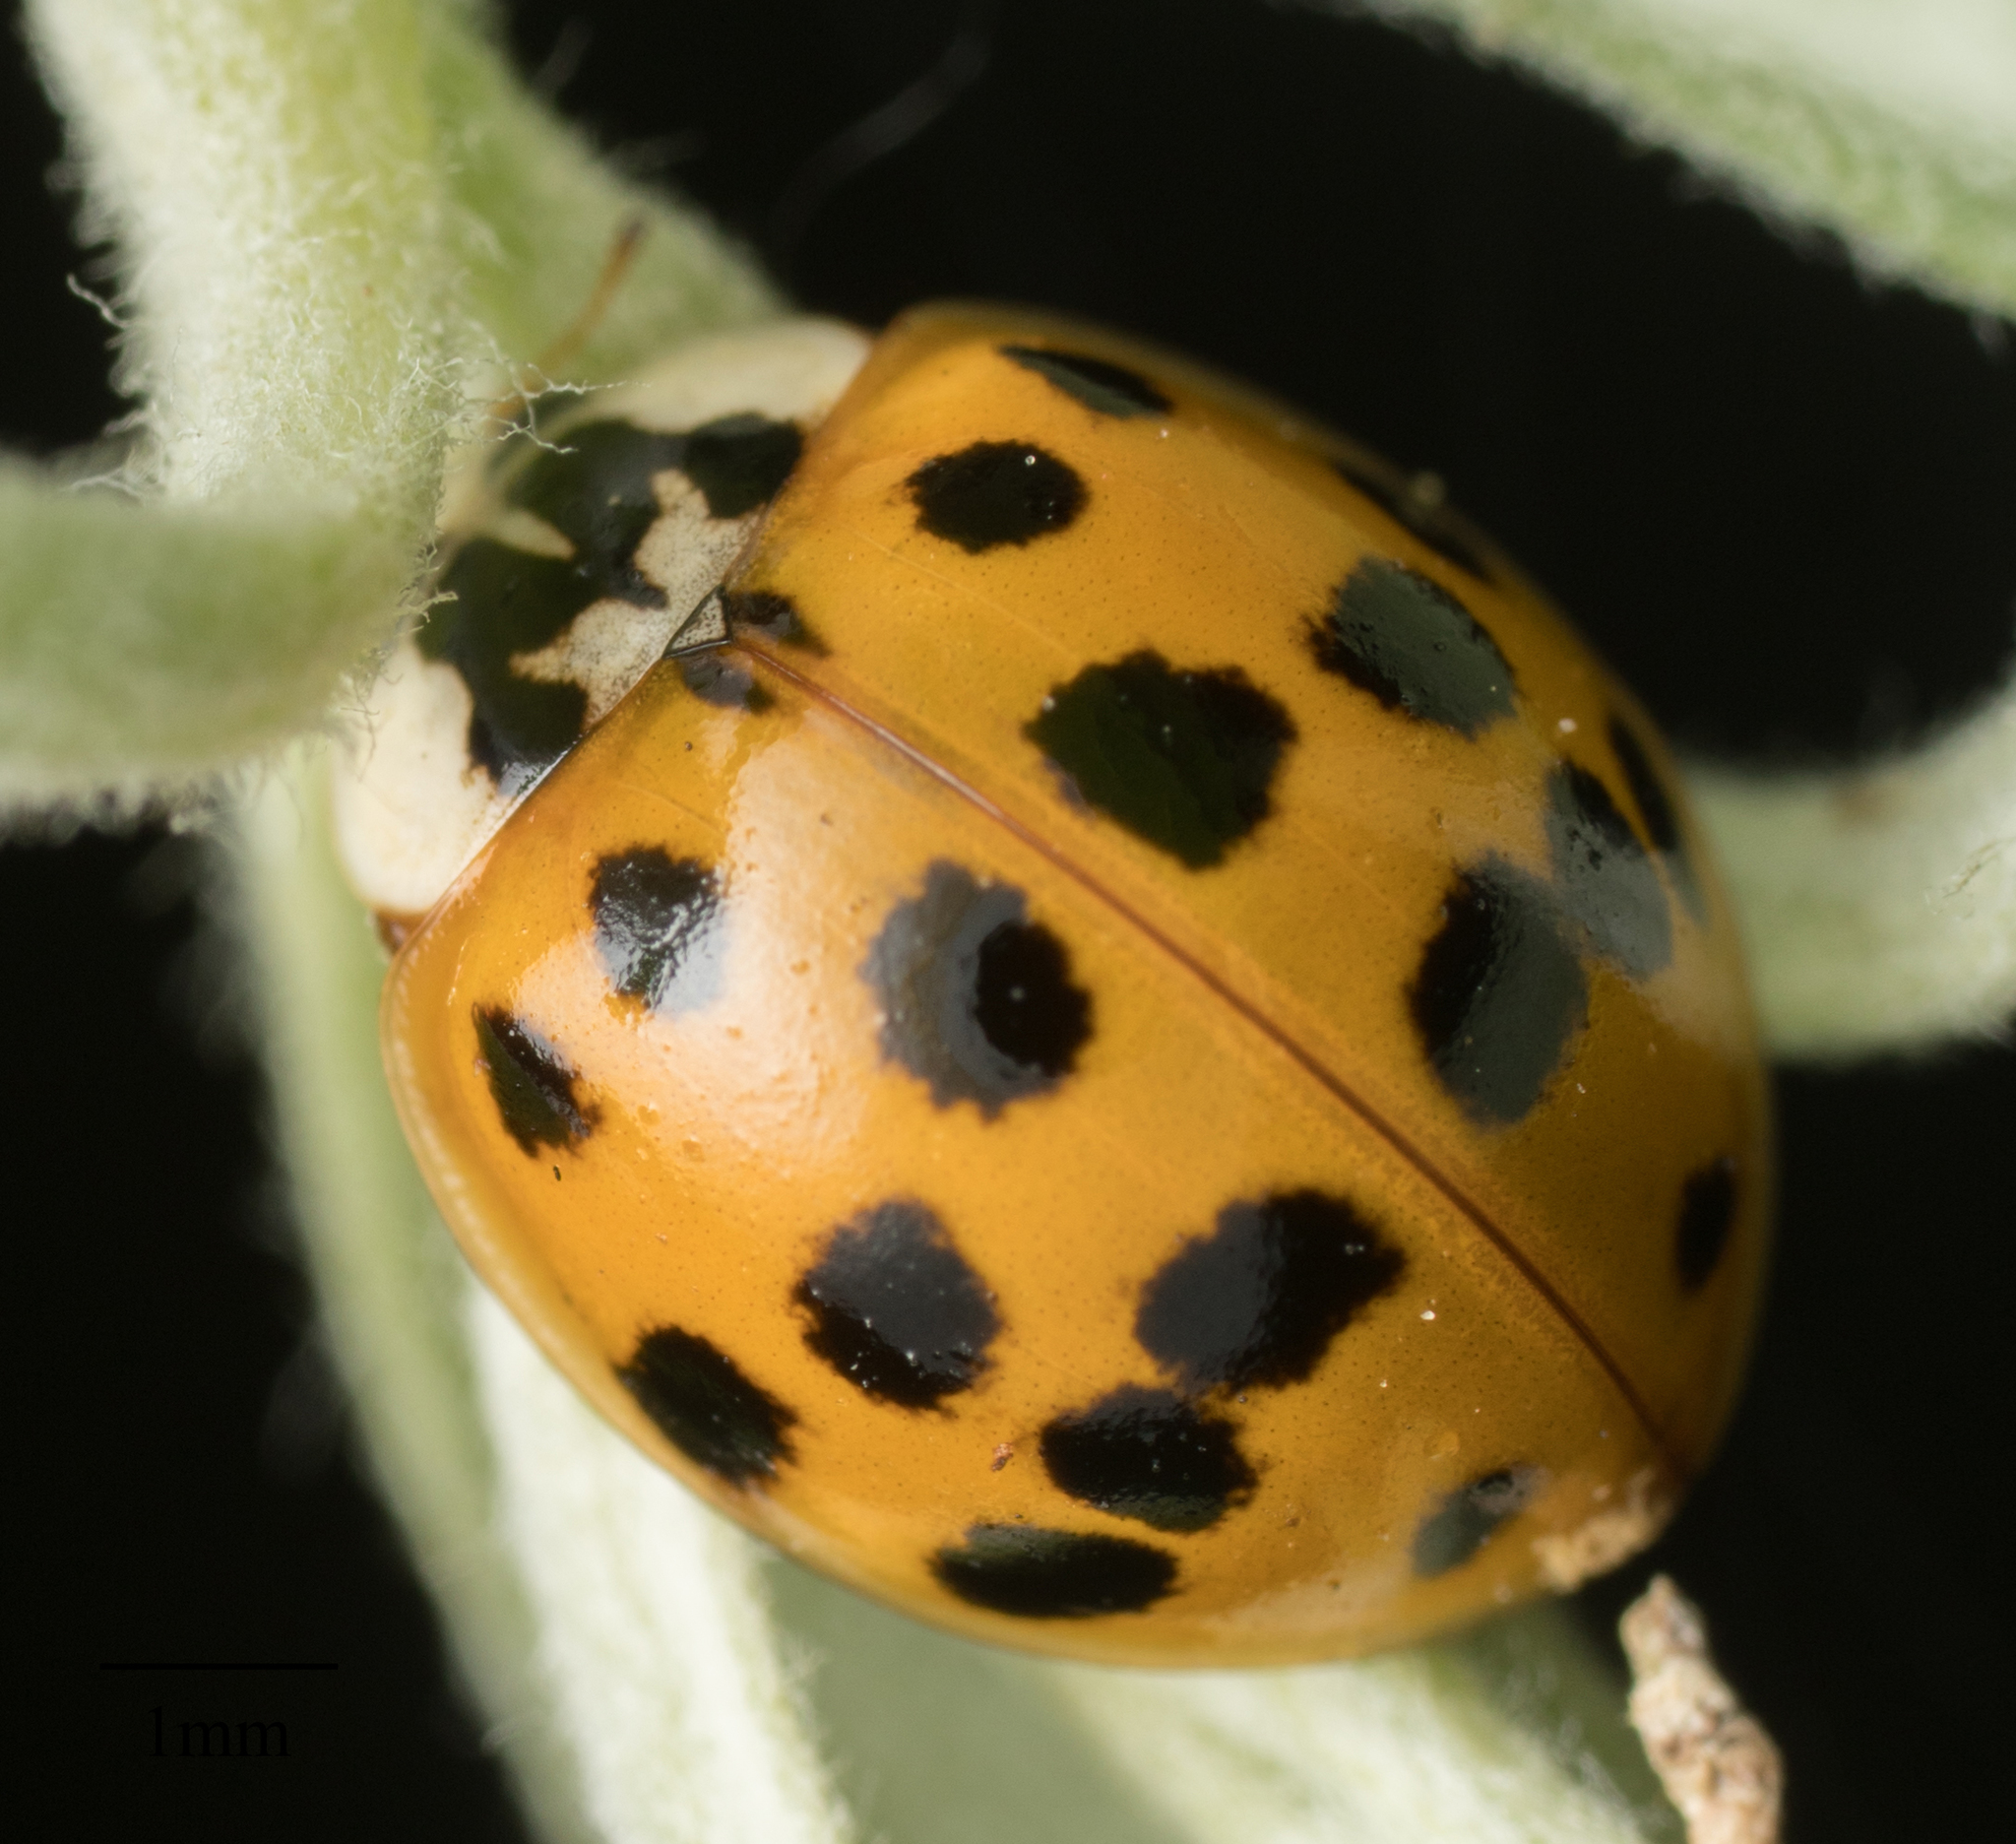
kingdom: Animalia
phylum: Arthropoda
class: Insecta
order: Coleoptera
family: Coccinellidae
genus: Harmonia
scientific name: Harmonia axyridis
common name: Harlequin ladybird
